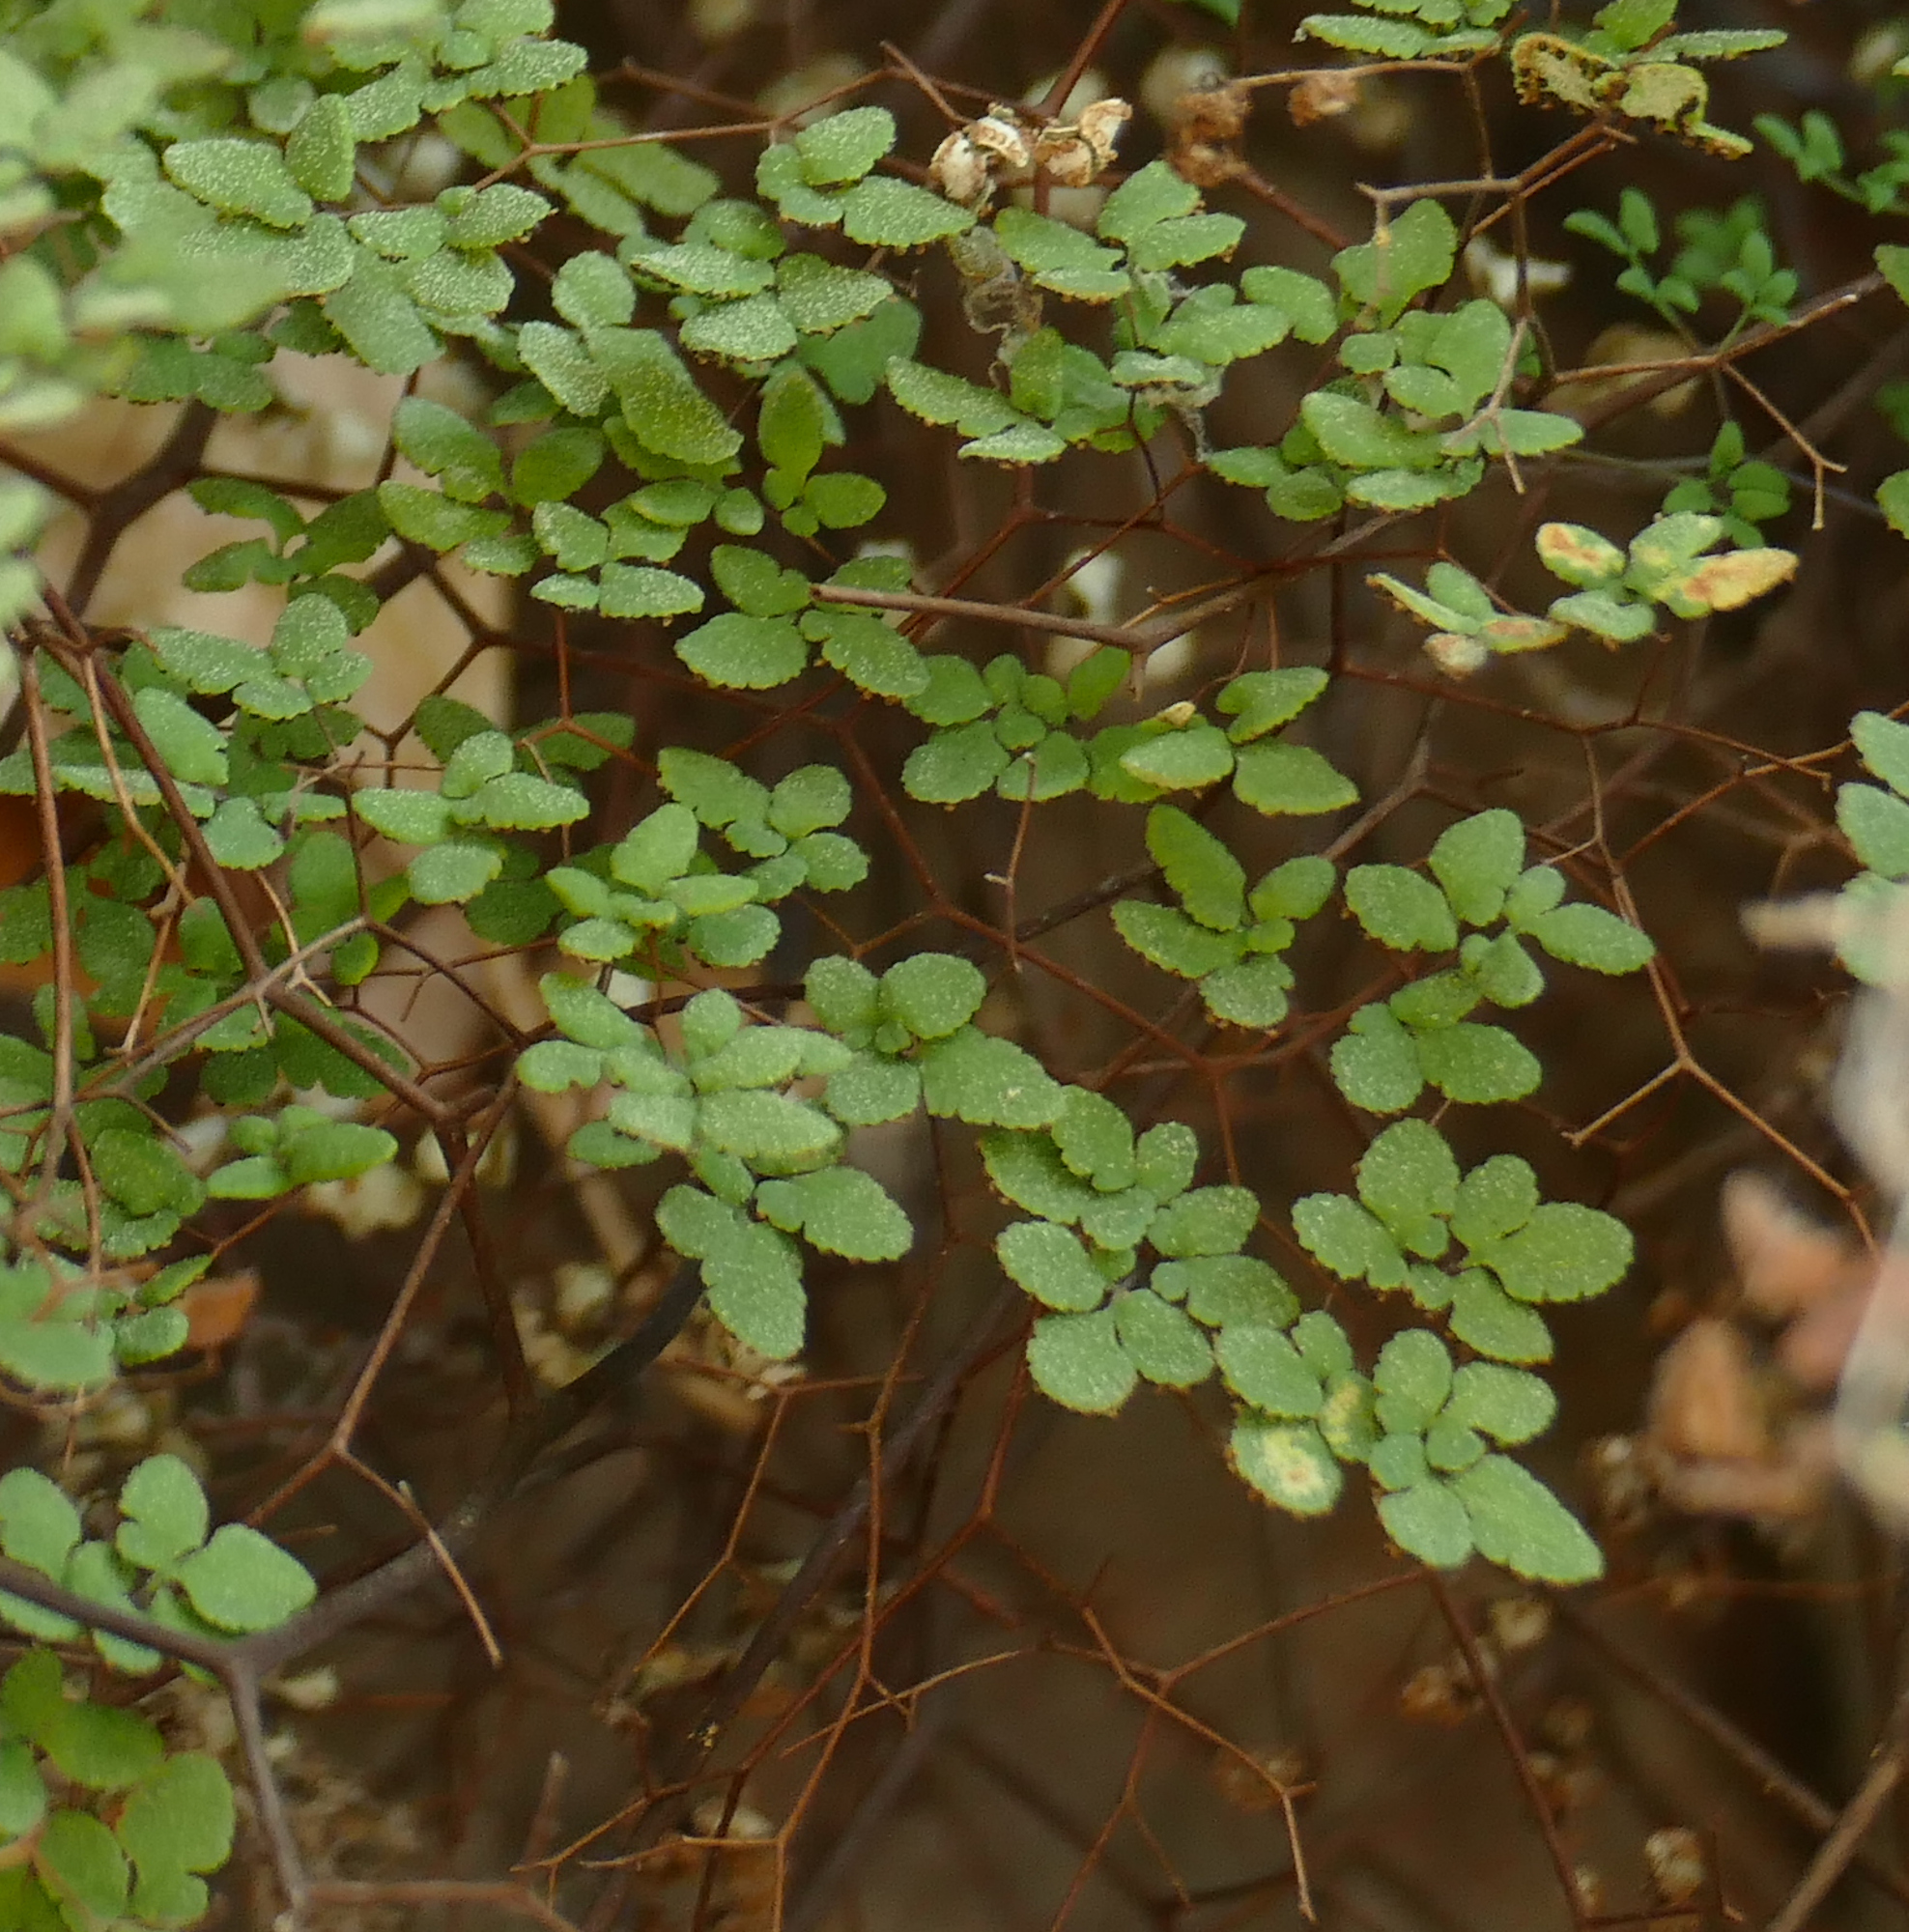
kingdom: Plantae
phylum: Tracheophyta
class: Polypodiopsida
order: Polypodiales
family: Pteridaceae
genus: Argyrochosma
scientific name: Argyrochosma fendleri
